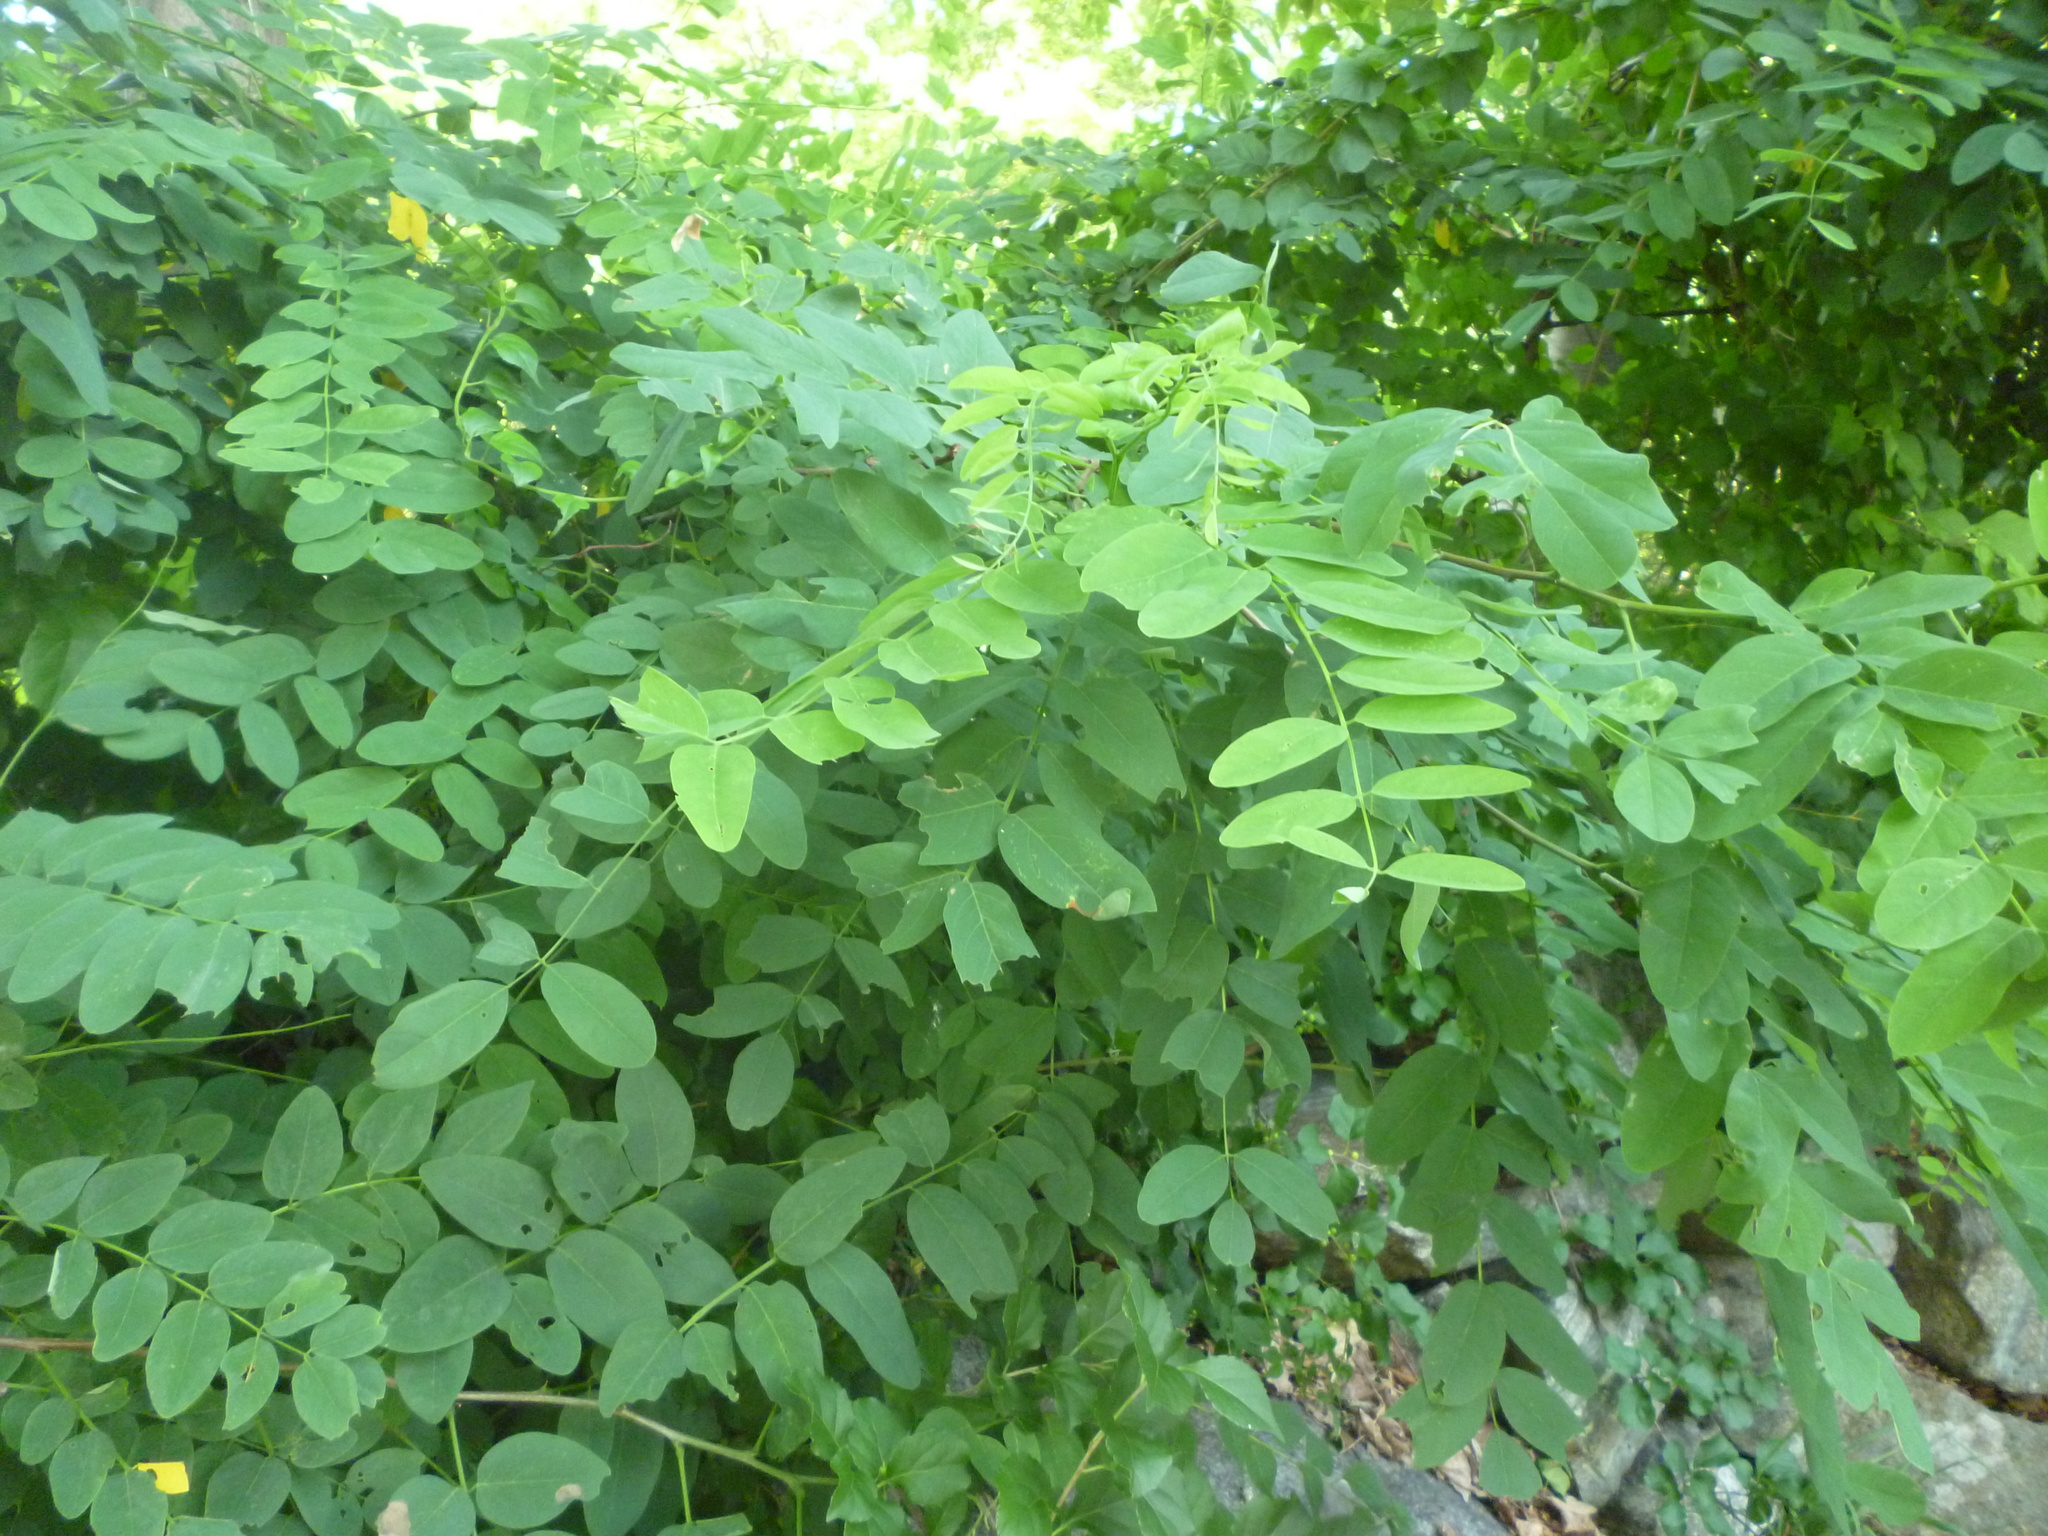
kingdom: Plantae
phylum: Tracheophyta
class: Magnoliopsida
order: Fabales
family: Fabaceae
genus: Robinia
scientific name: Robinia pseudoacacia
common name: Black locust
